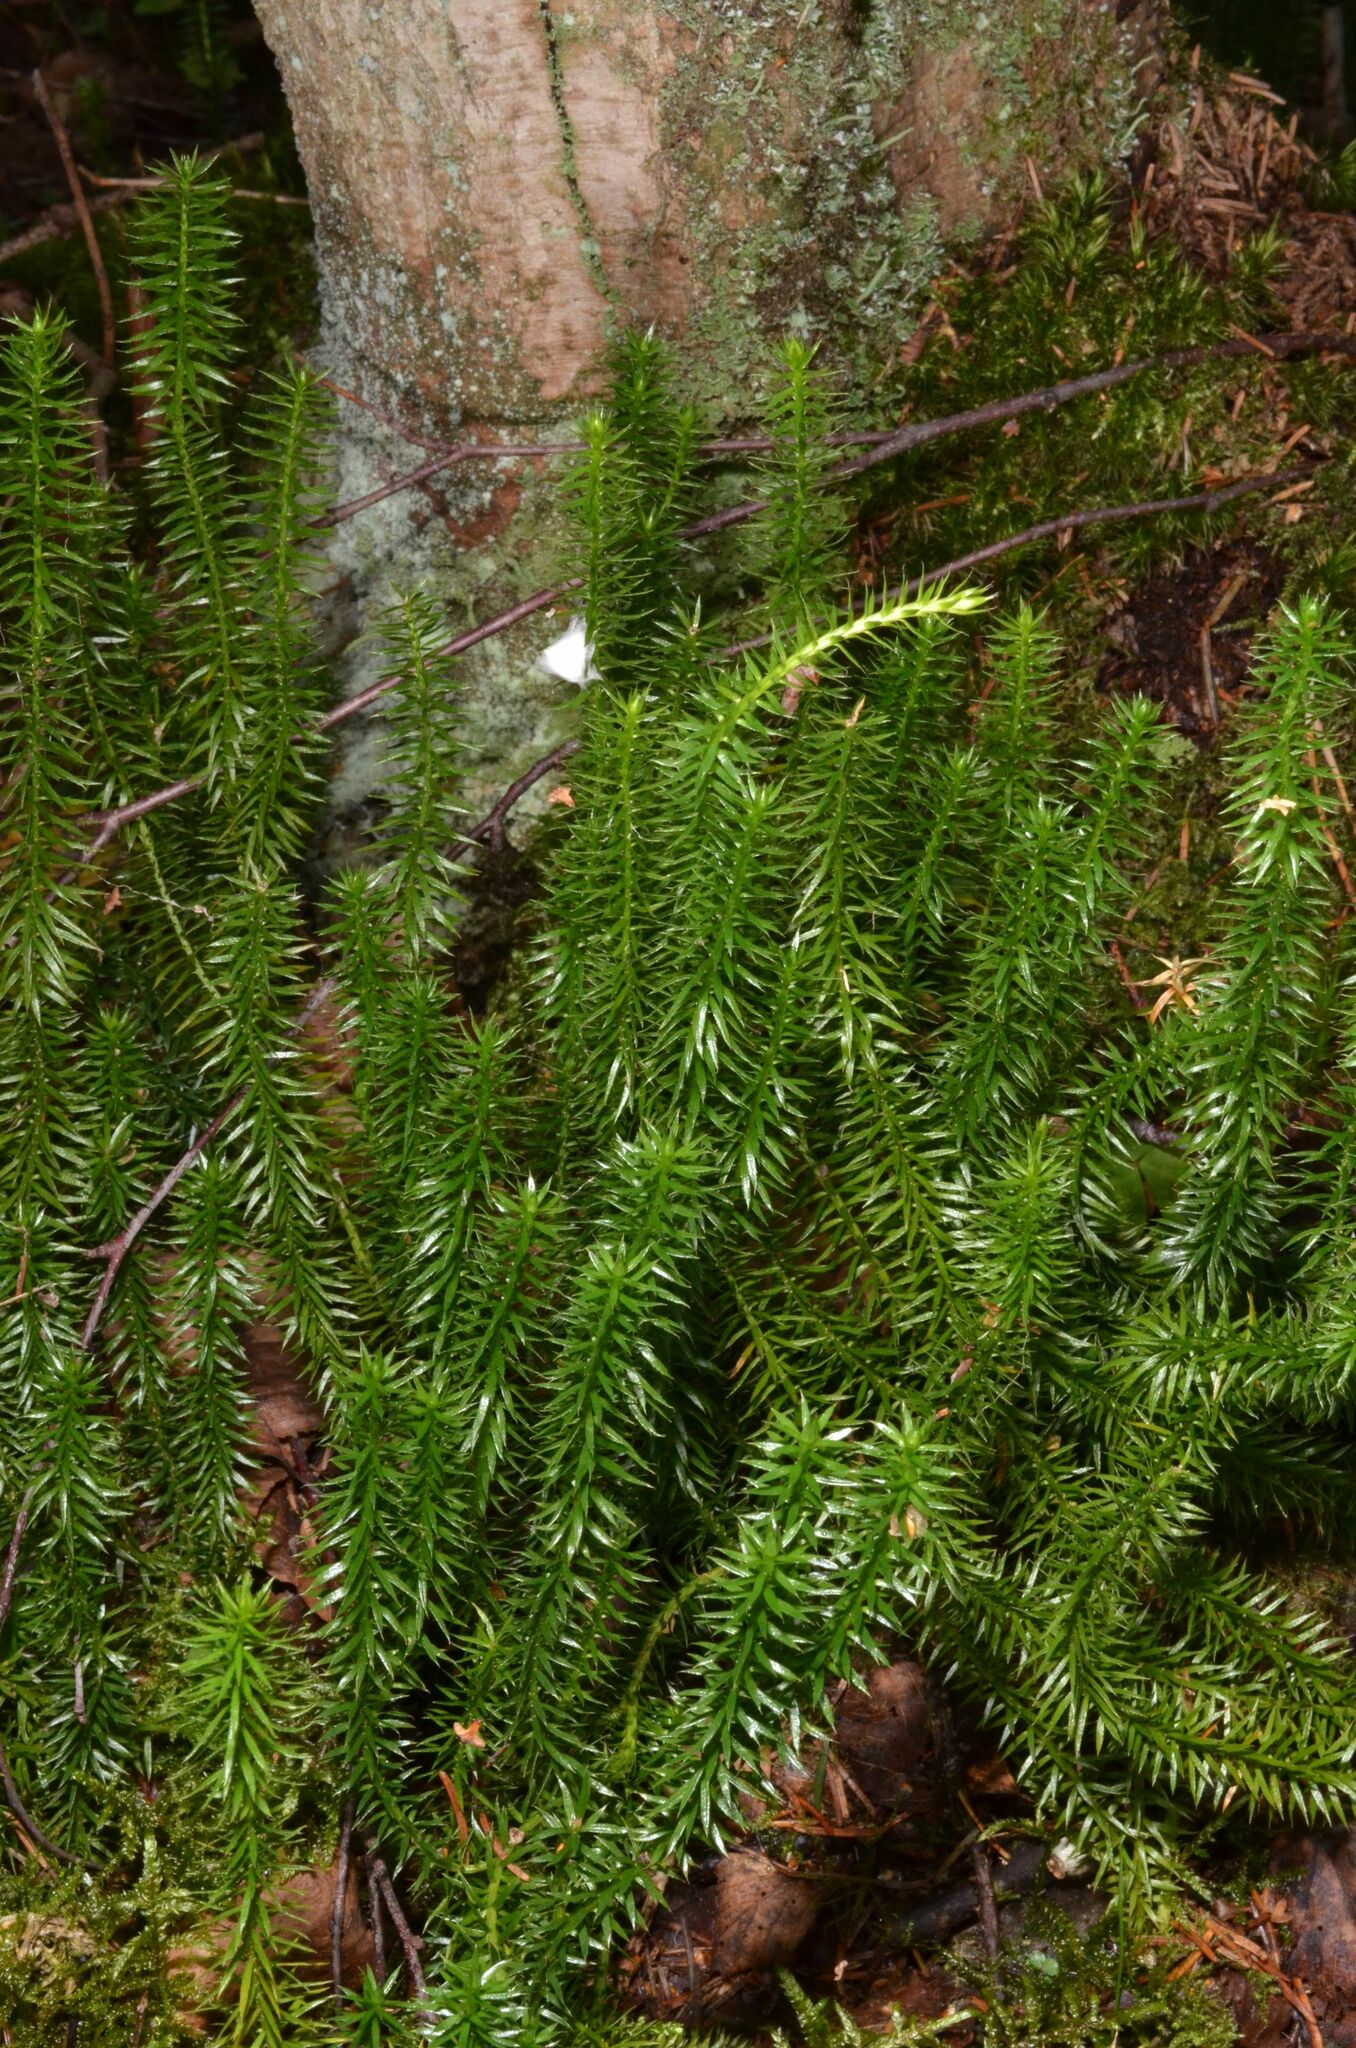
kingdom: Plantae
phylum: Tracheophyta
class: Lycopodiopsida
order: Lycopodiales
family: Lycopodiaceae
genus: Spinulum
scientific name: Spinulum annotinum
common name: Interrupted club-moss
